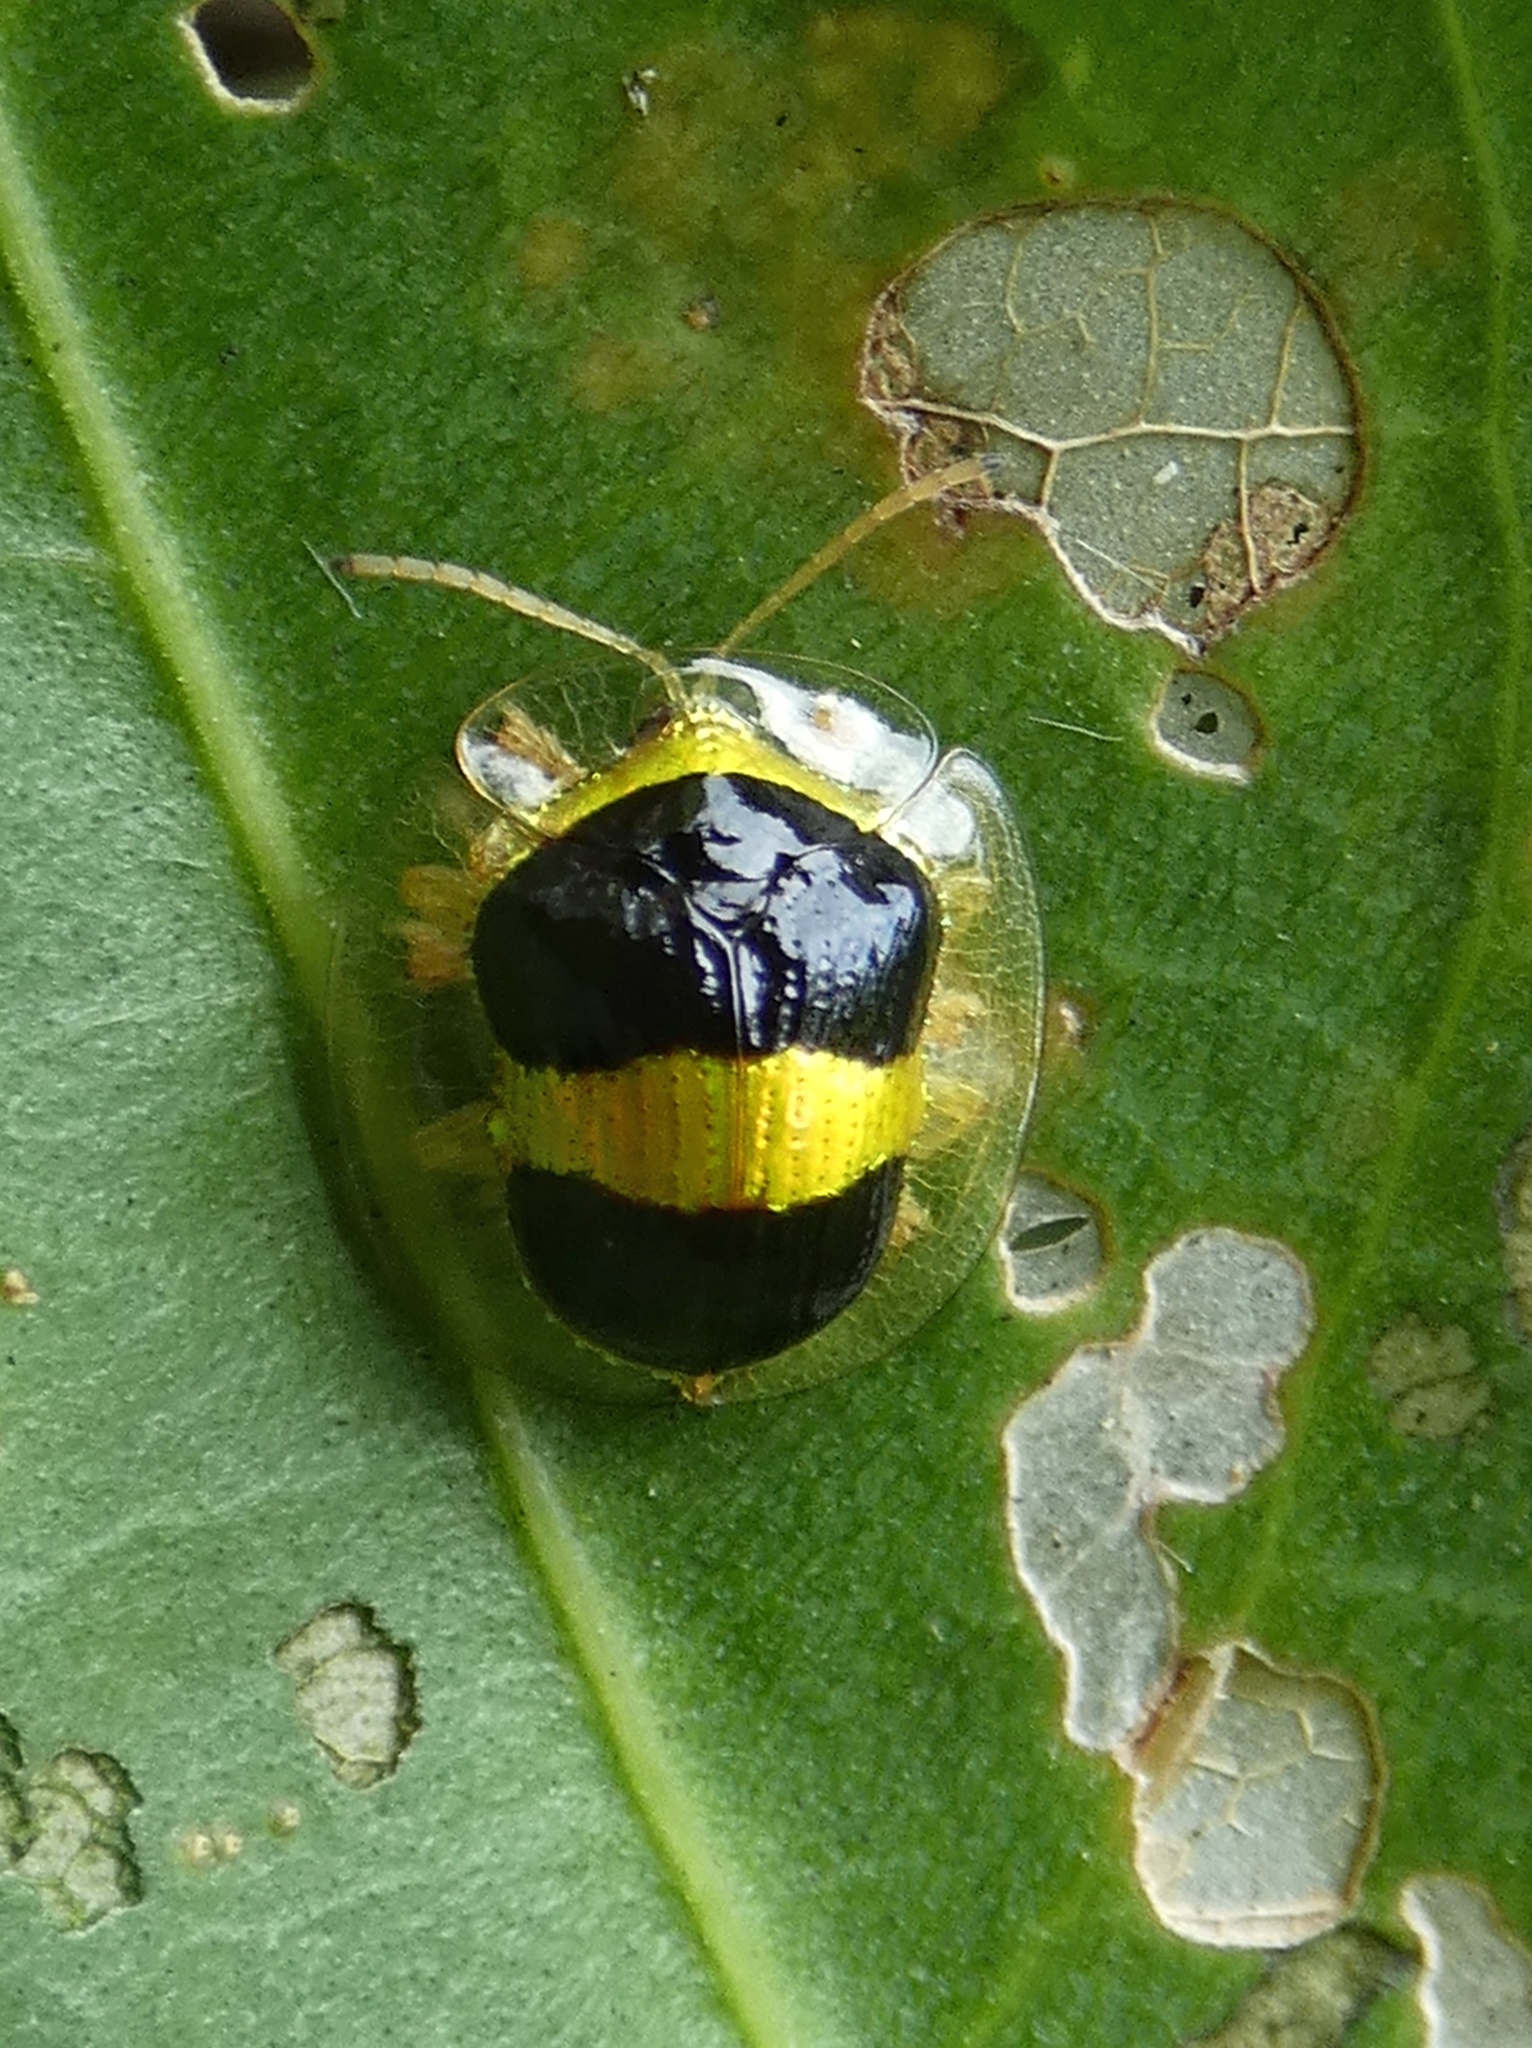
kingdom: Animalia
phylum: Arthropoda
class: Insecta
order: Coleoptera
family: Chrysomelidae
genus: Charidotis
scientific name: Charidotis leprieuri
